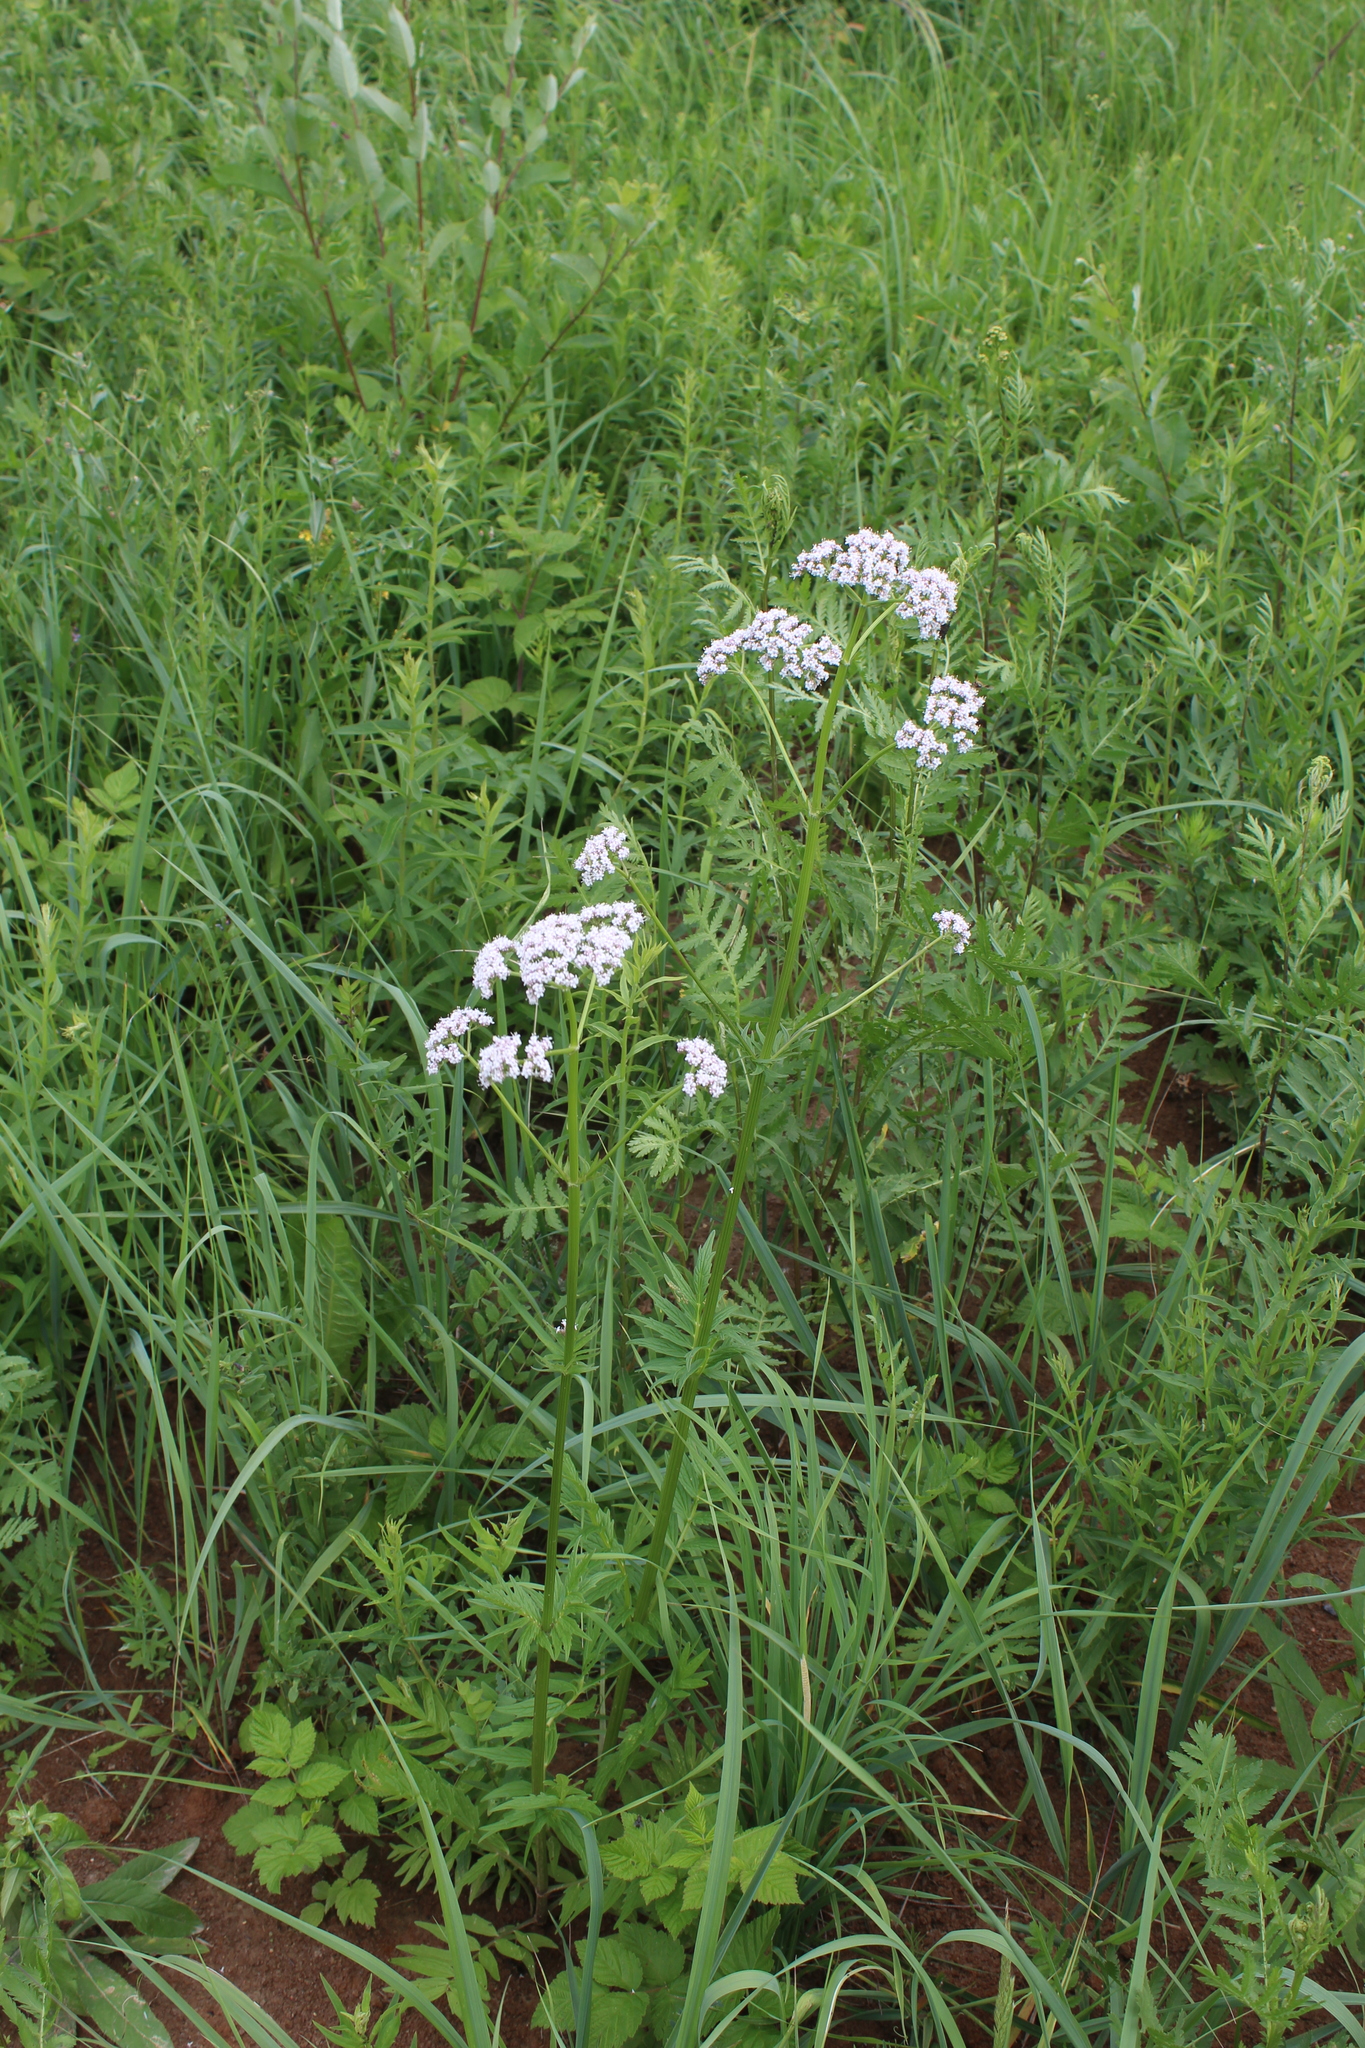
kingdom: Plantae
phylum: Tracheophyta
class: Magnoliopsida
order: Dipsacales
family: Caprifoliaceae
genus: Valeriana
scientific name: Valeriana officinalis
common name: Common valerian
